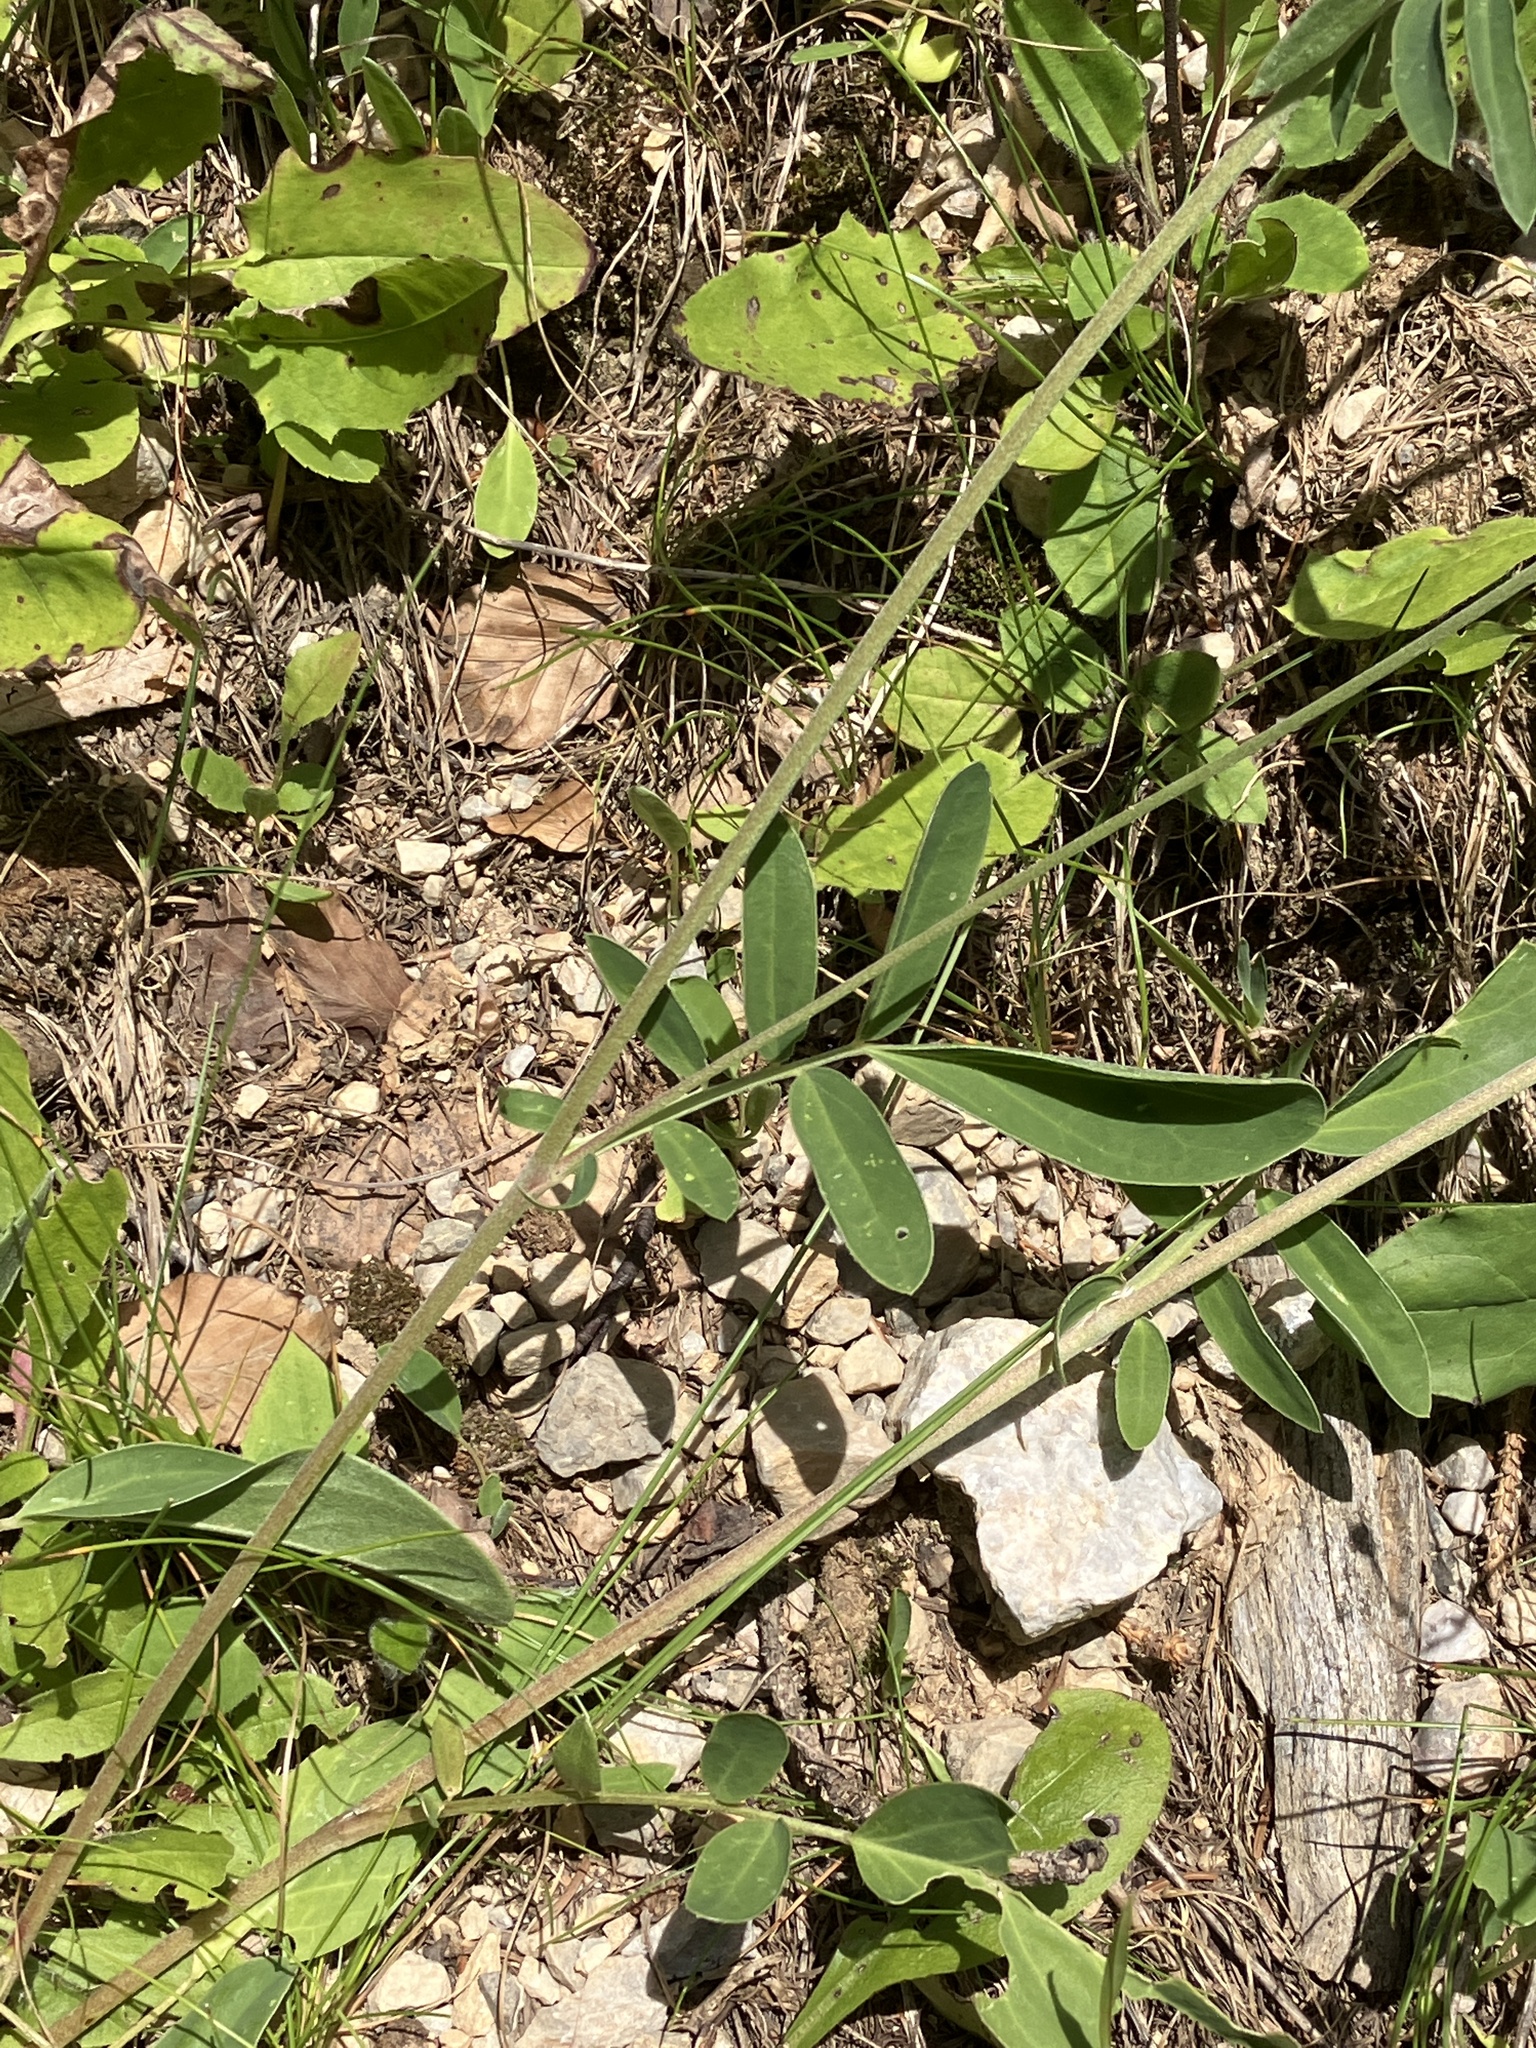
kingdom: Plantae
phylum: Tracheophyta
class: Magnoliopsida
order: Fabales
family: Fabaceae
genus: Anthyllis
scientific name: Anthyllis vulneraria
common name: Kidney vetch
